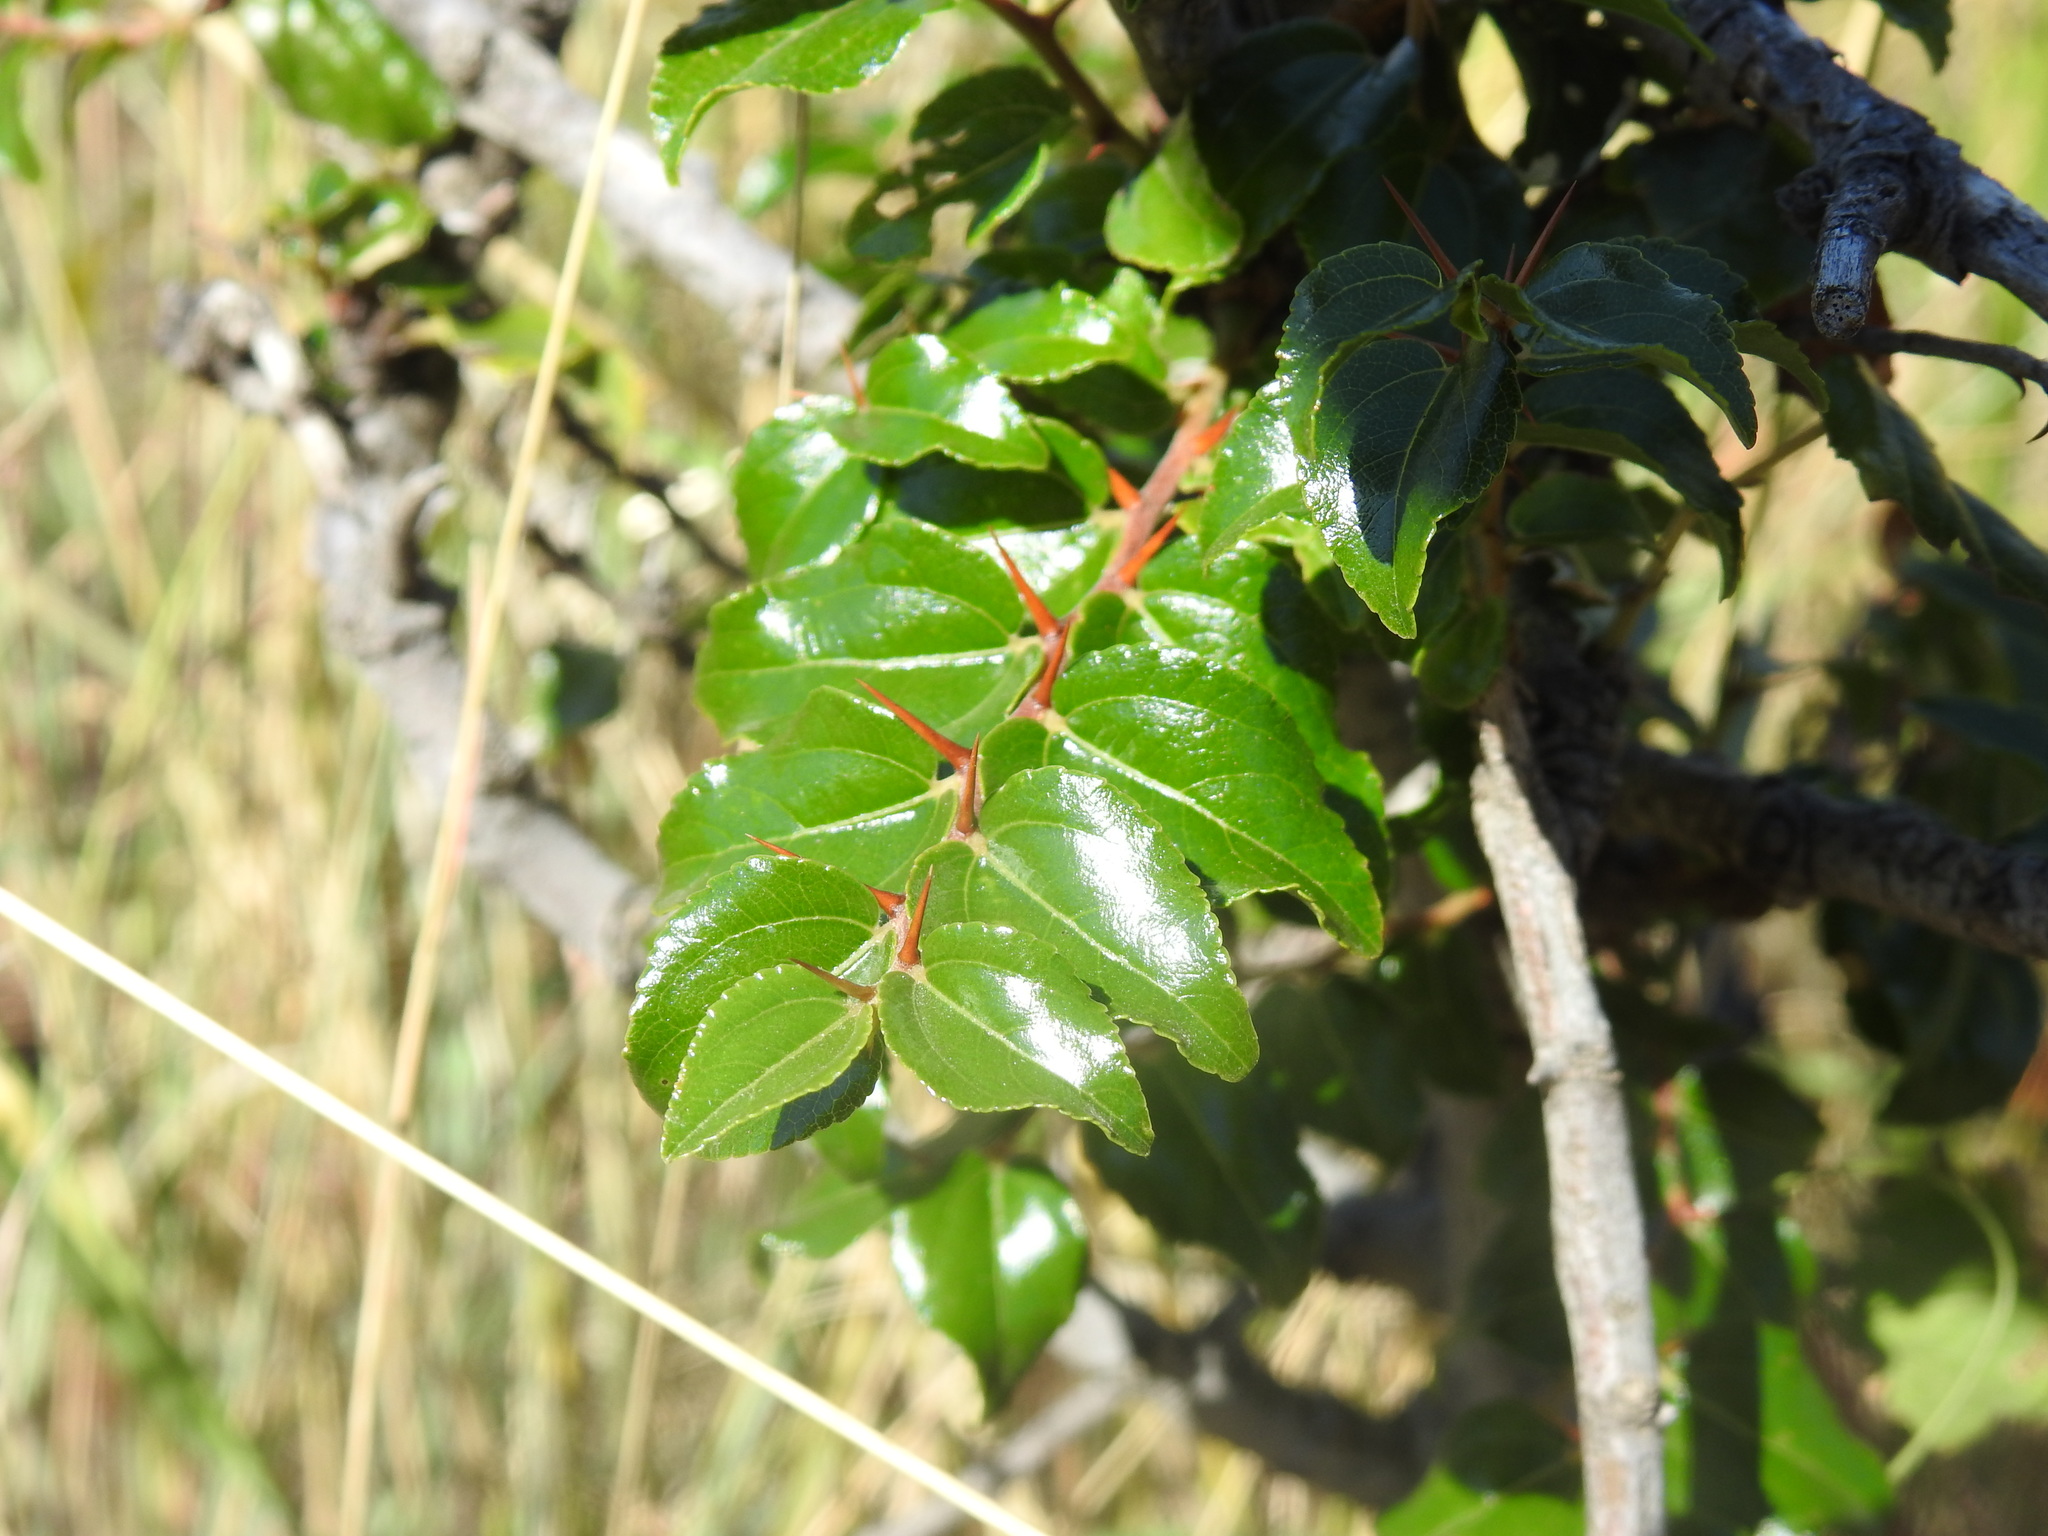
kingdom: Plantae
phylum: Tracheophyta
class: Magnoliopsida
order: Rosales
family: Rhamnaceae
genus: Ziziphus
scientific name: Ziziphus mucronata
